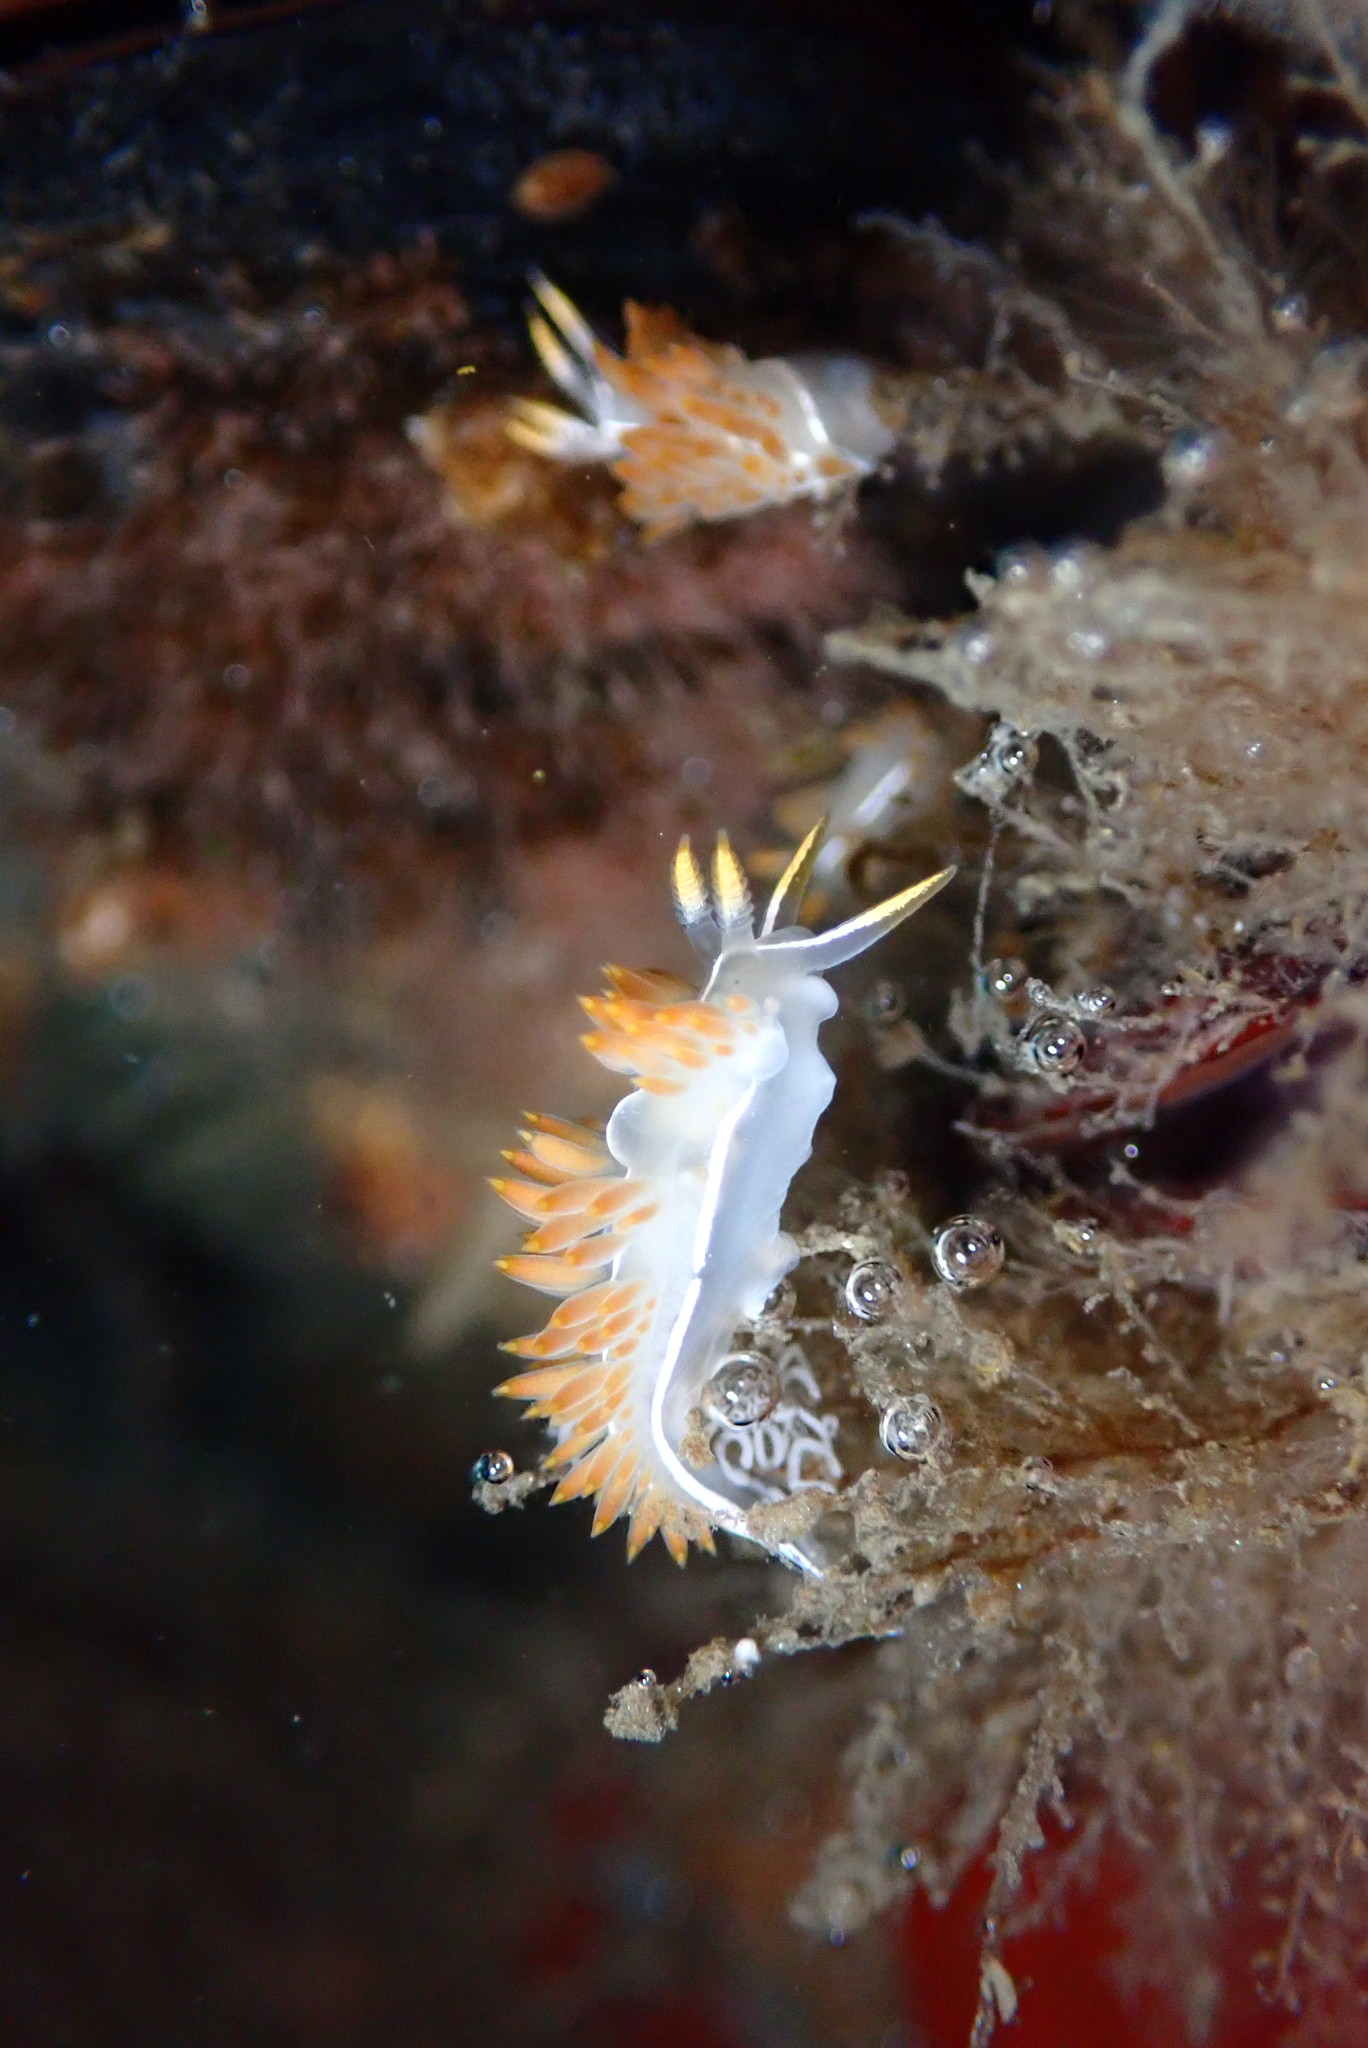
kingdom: Animalia
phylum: Mollusca
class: Gastropoda
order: Nudibranchia
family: Coryphellidae
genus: Coryphella
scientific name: Coryphella trilineata
